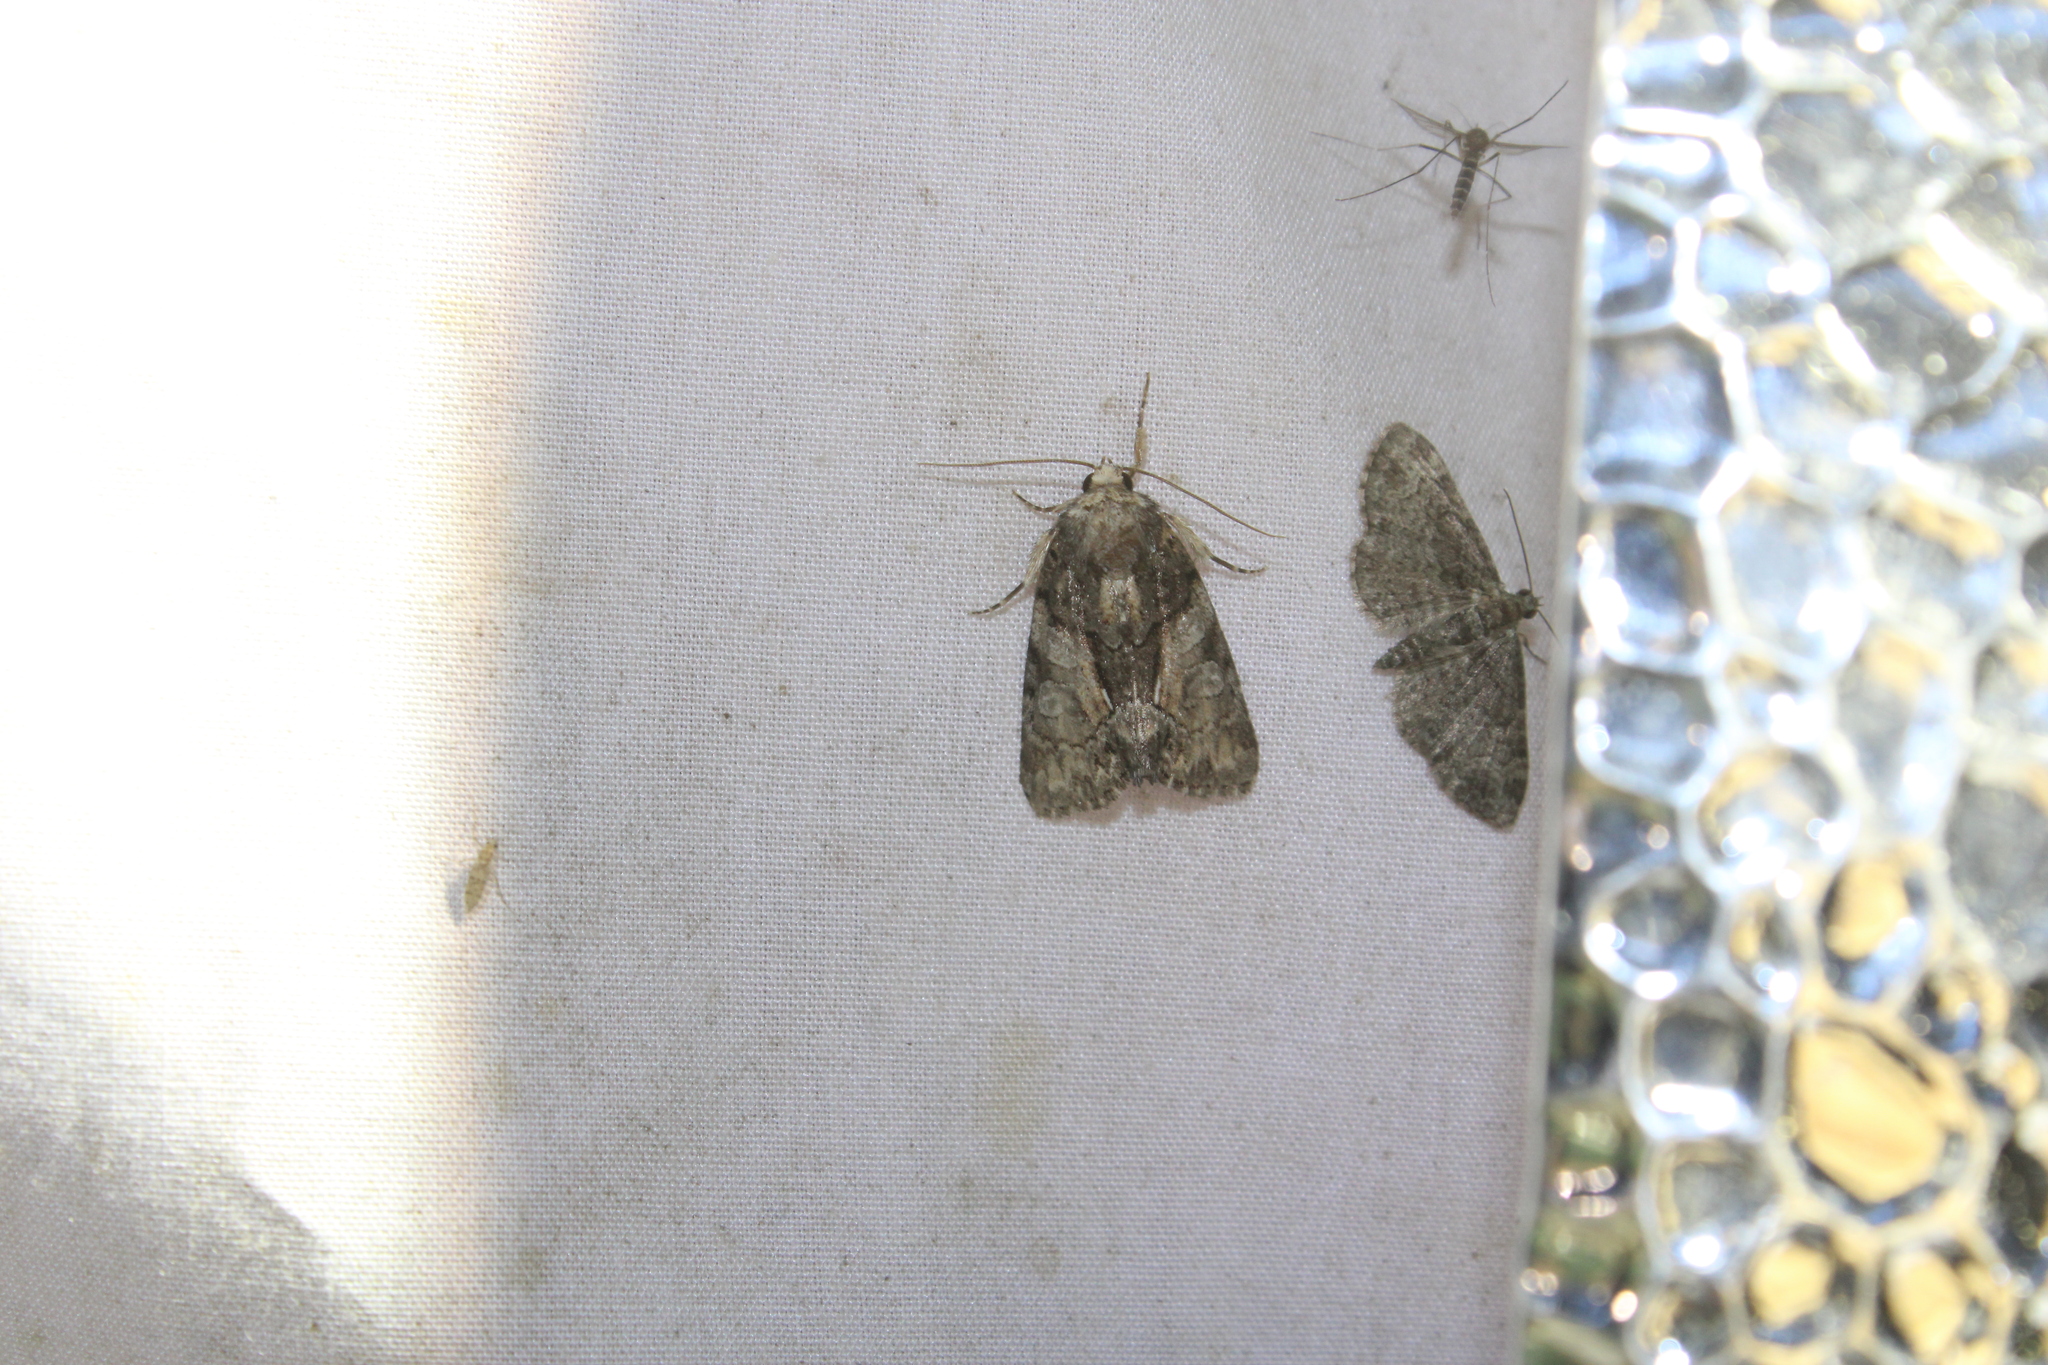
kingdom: Animalia
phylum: Arthropoda
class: Insecta
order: Lepidoptera
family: Noctuidae
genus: Chytonix
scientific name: Chytonix palliatricula
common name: Cloaked marvel
